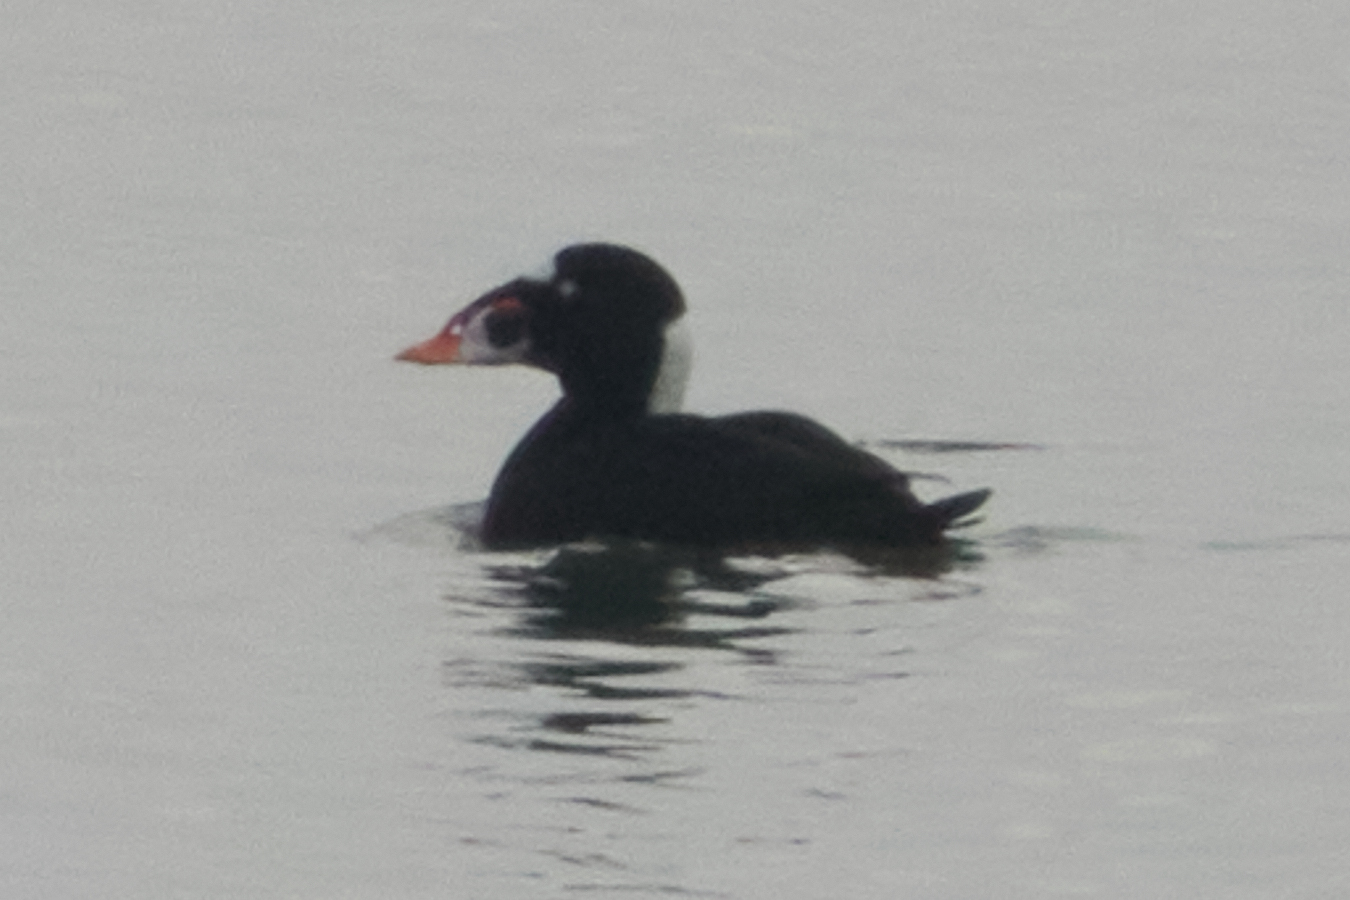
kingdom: Animalia
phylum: Chordata
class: Aves
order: Anseriformes
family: Anatidae
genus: Melanitta
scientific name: Melanitta perspicillata
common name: Surf scoter
